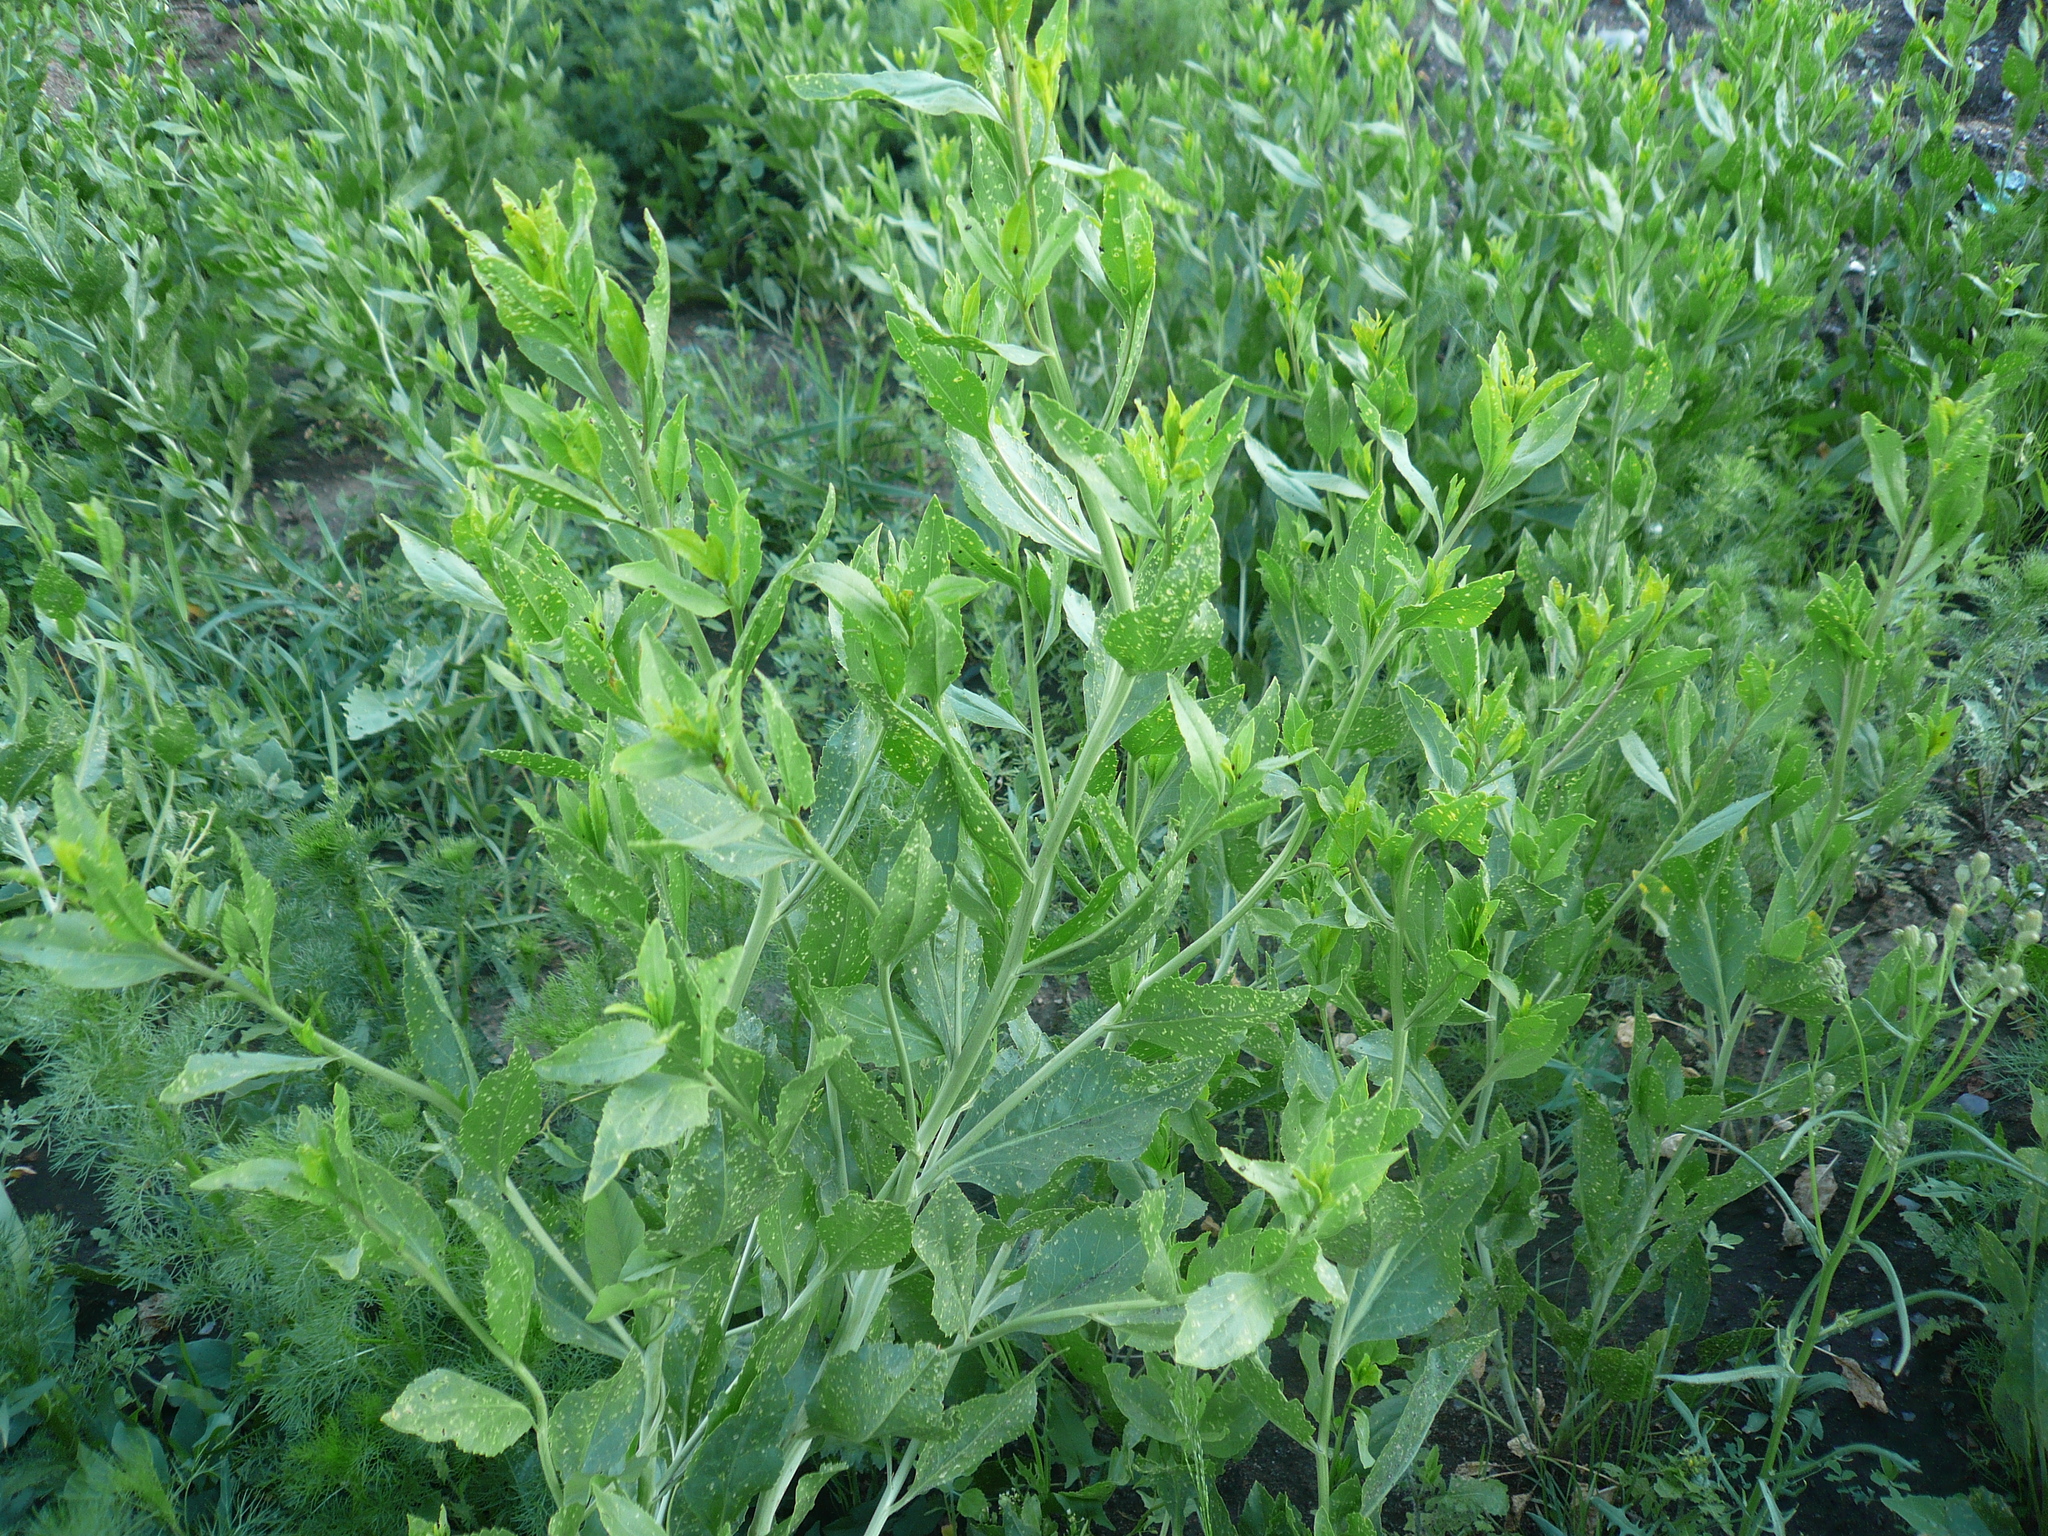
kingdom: Plantae
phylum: Tracheophyta
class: Magnoliopsida
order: Brassicales
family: Brassicaceae
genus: Sisymbrium
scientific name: Sisymbrium volgense
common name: Russian mustard
